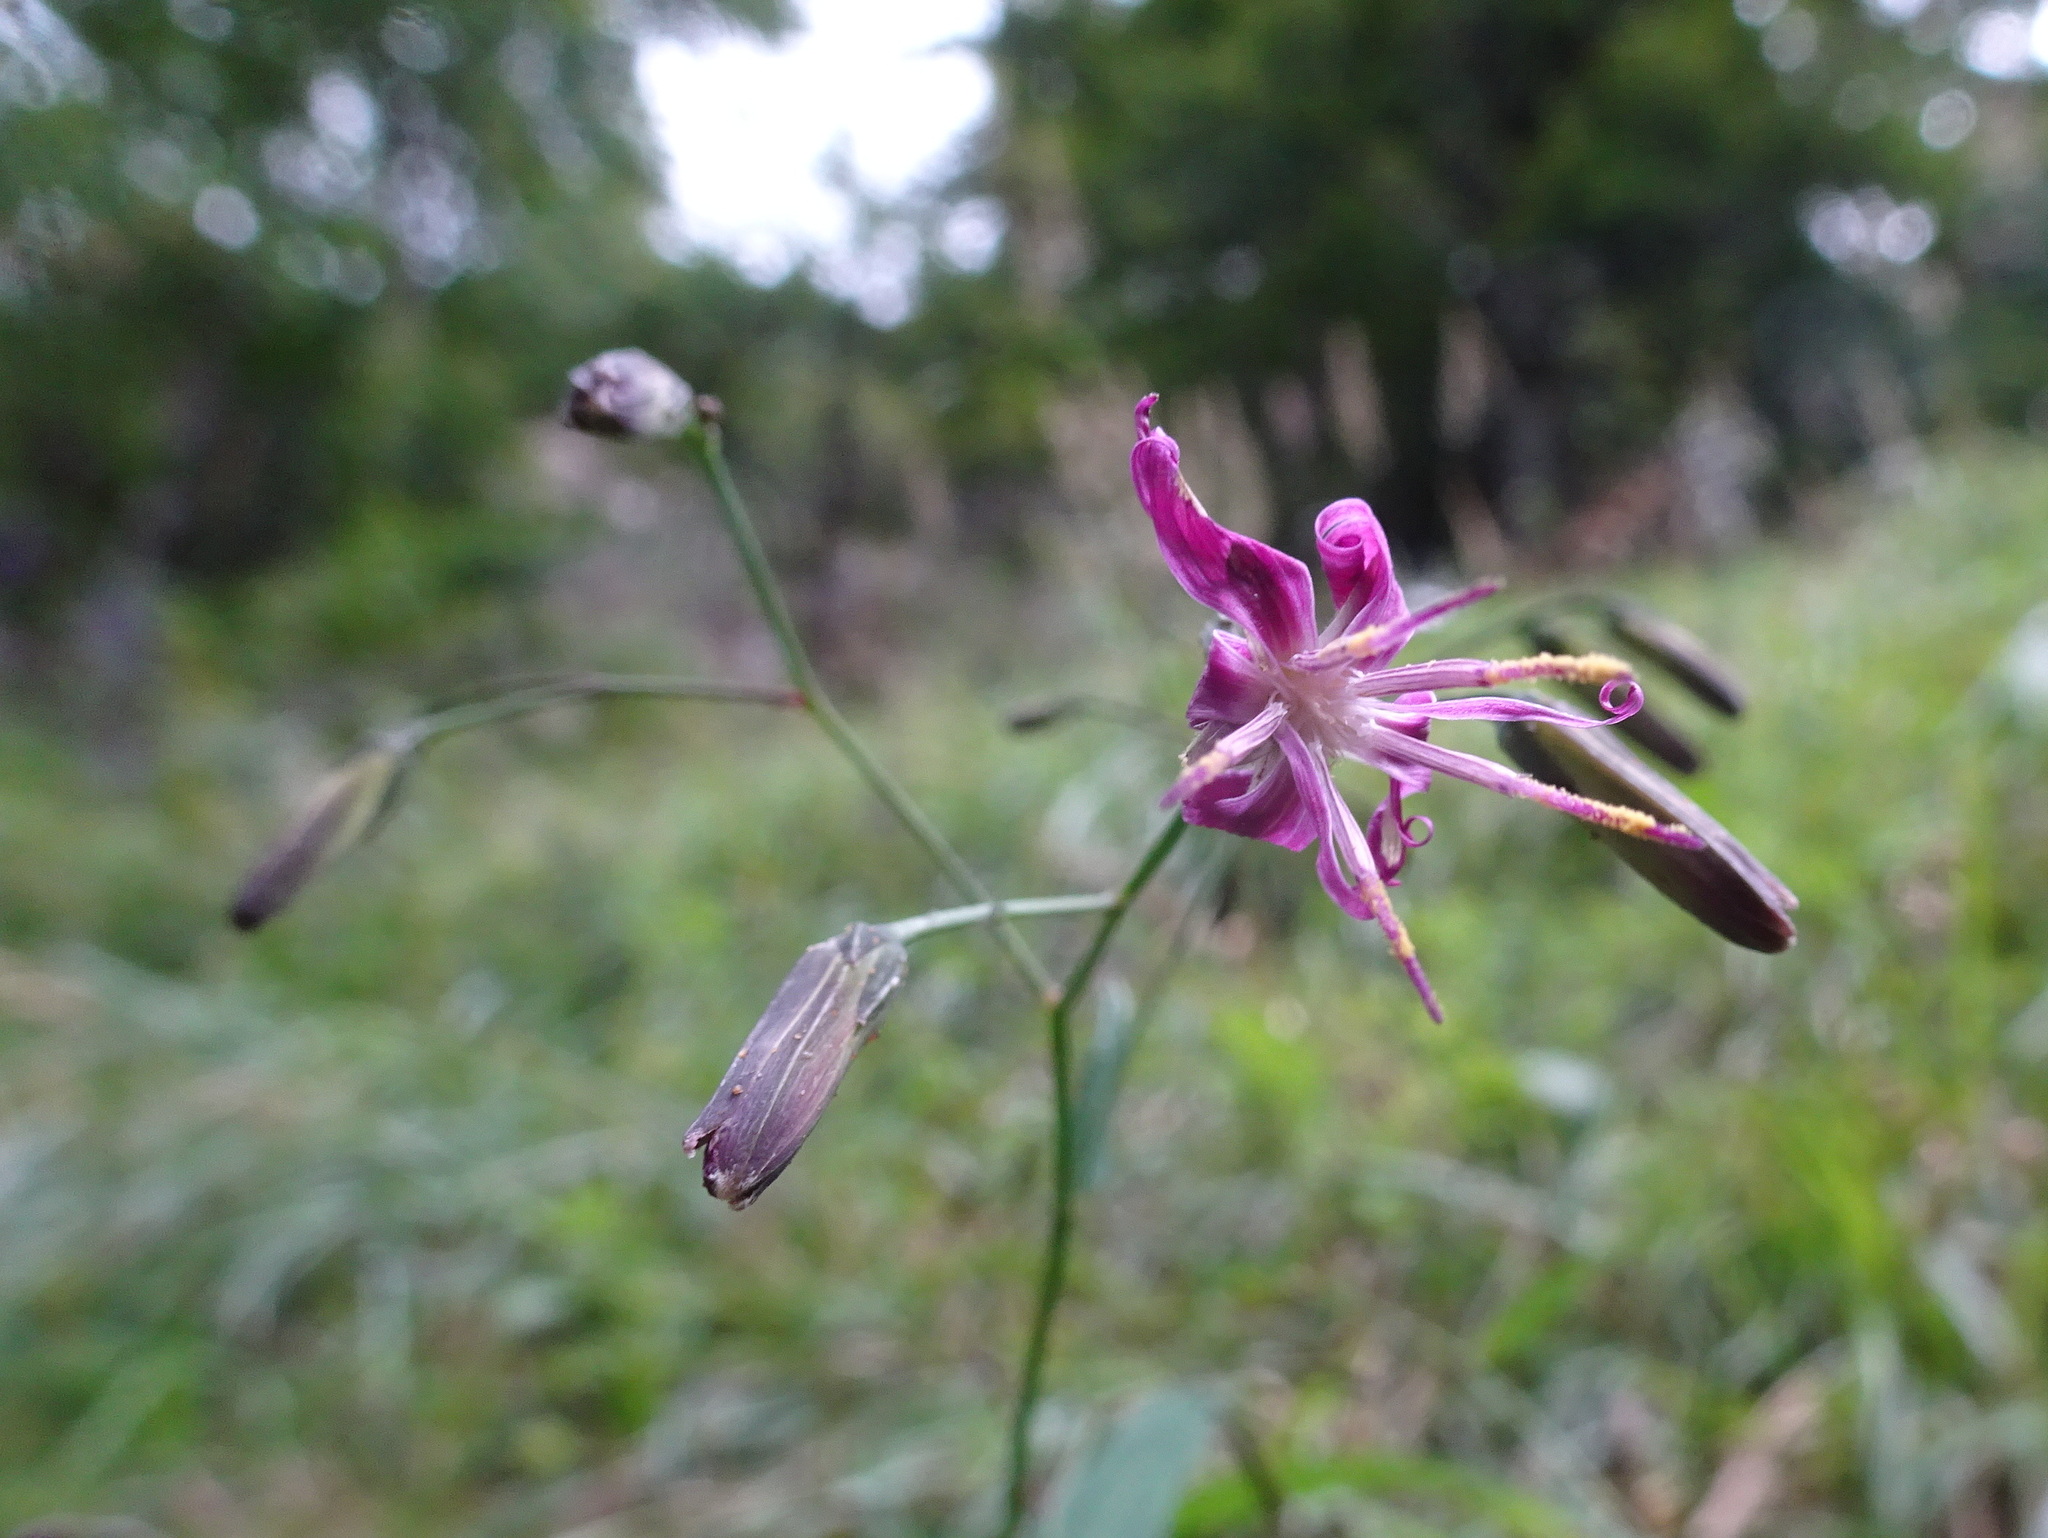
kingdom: Plantae
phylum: Tracheophyta
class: Magnoliopsida
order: Asterales
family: Asteraceae
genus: Prenanthes
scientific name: Prenanthes purpurea
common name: Purple lettuce
